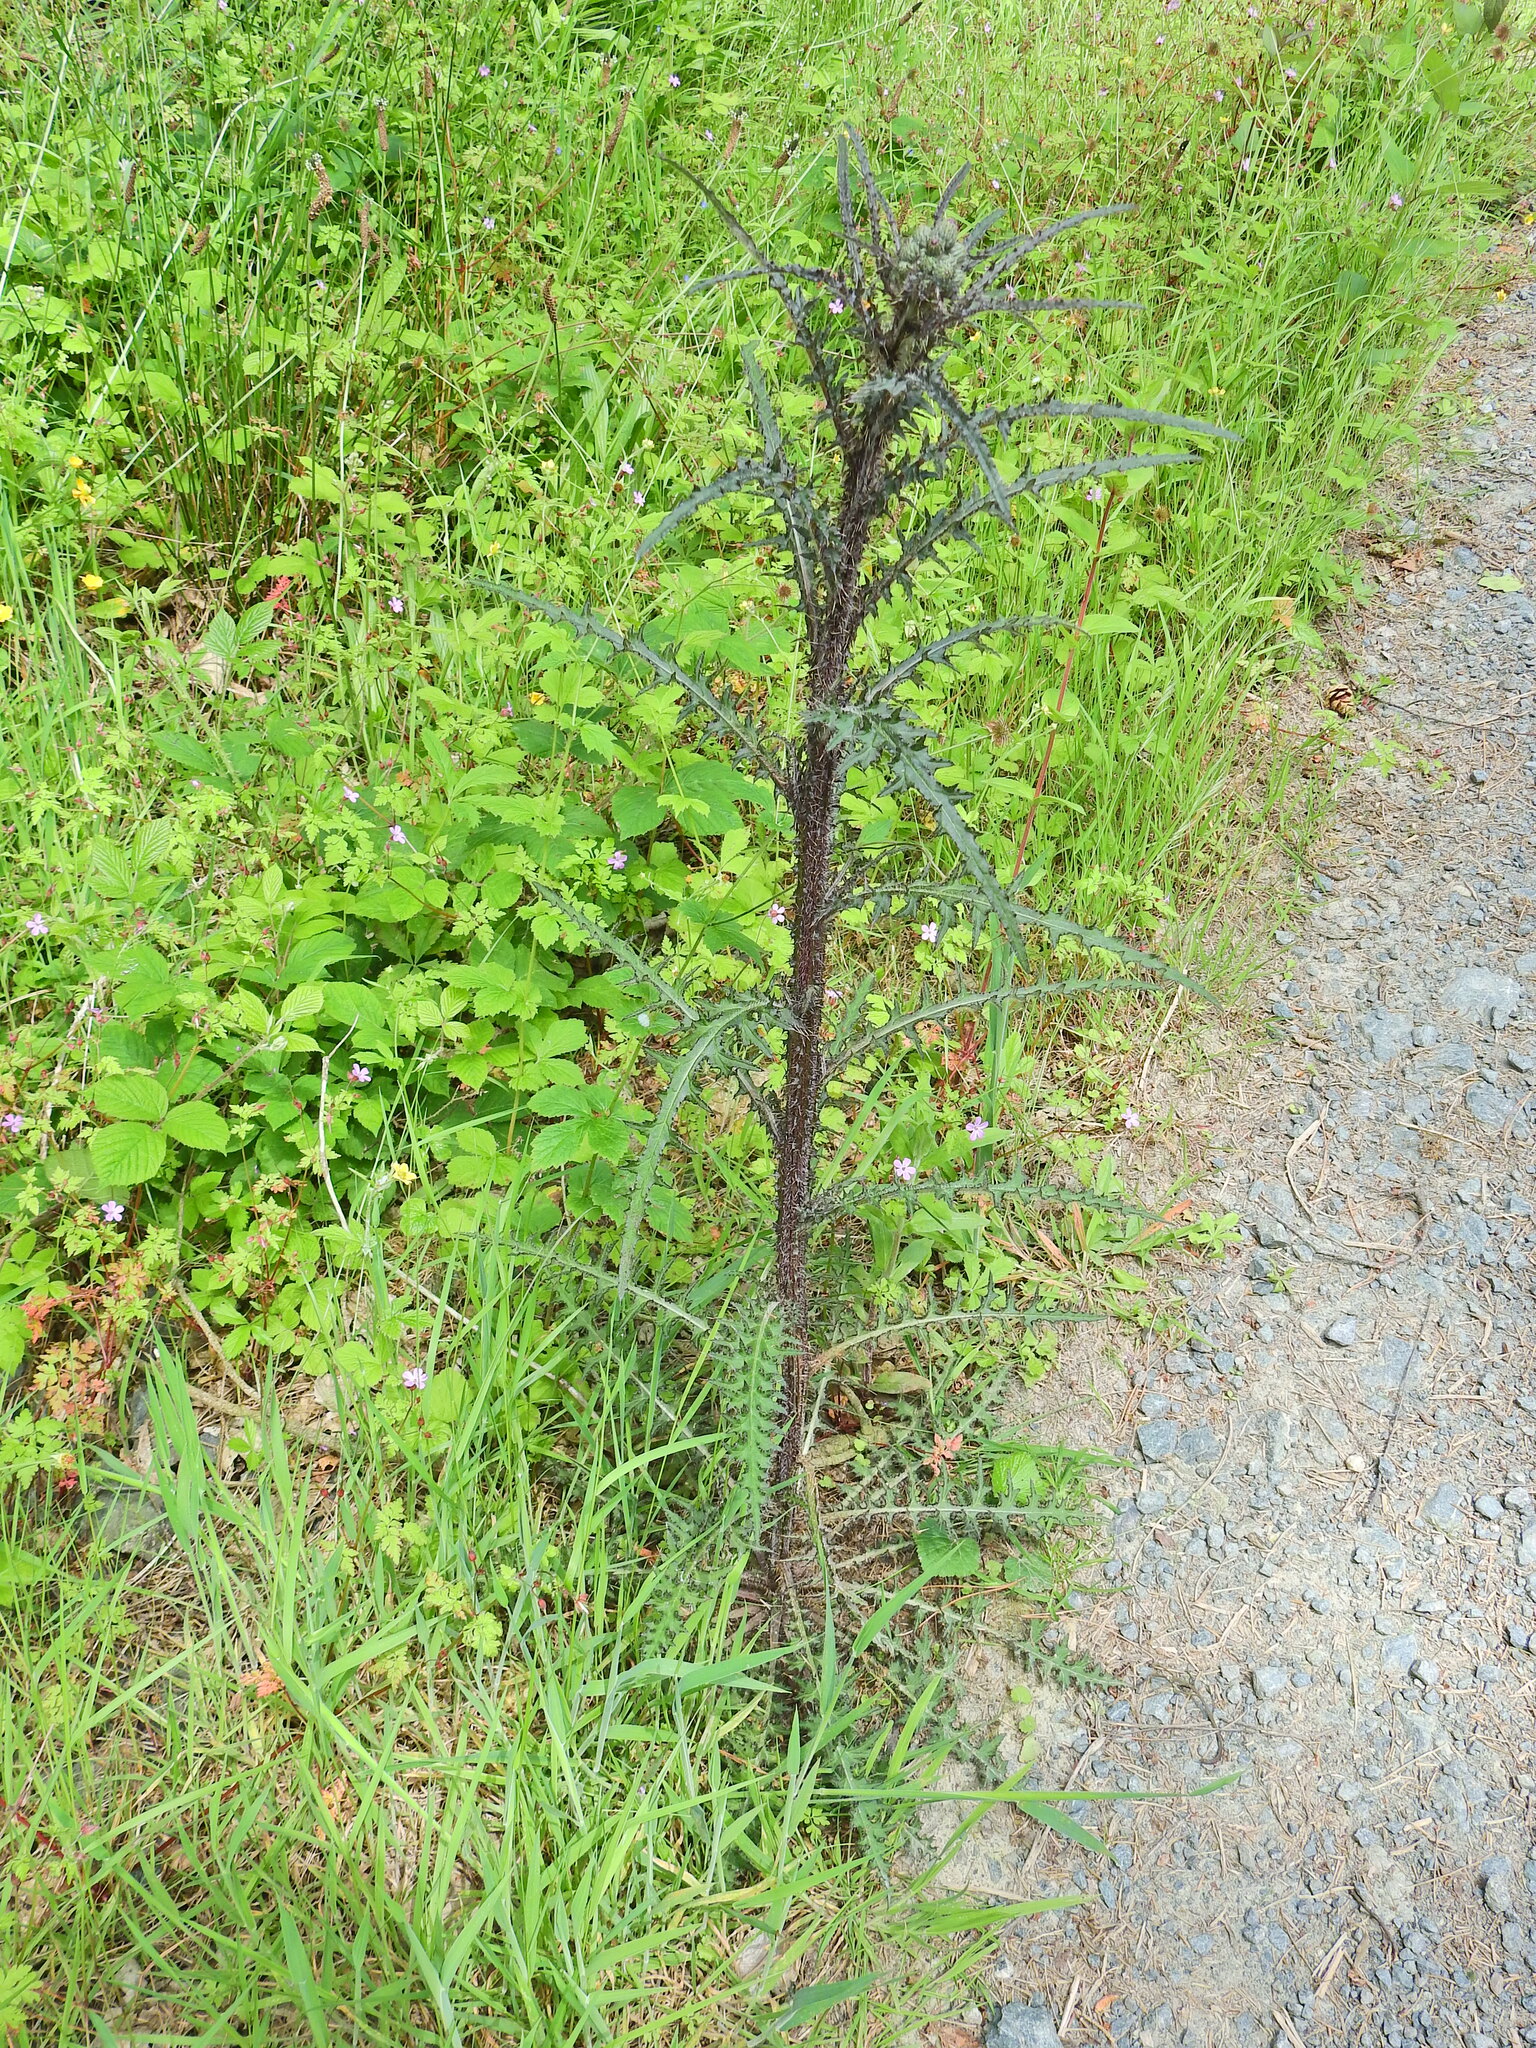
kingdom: Plantae
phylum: Tracheophyta
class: Magnoliopsida
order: Asterales
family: Asteraceae
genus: Cirsium
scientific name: Cirsium palustre
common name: Marsh thistle
